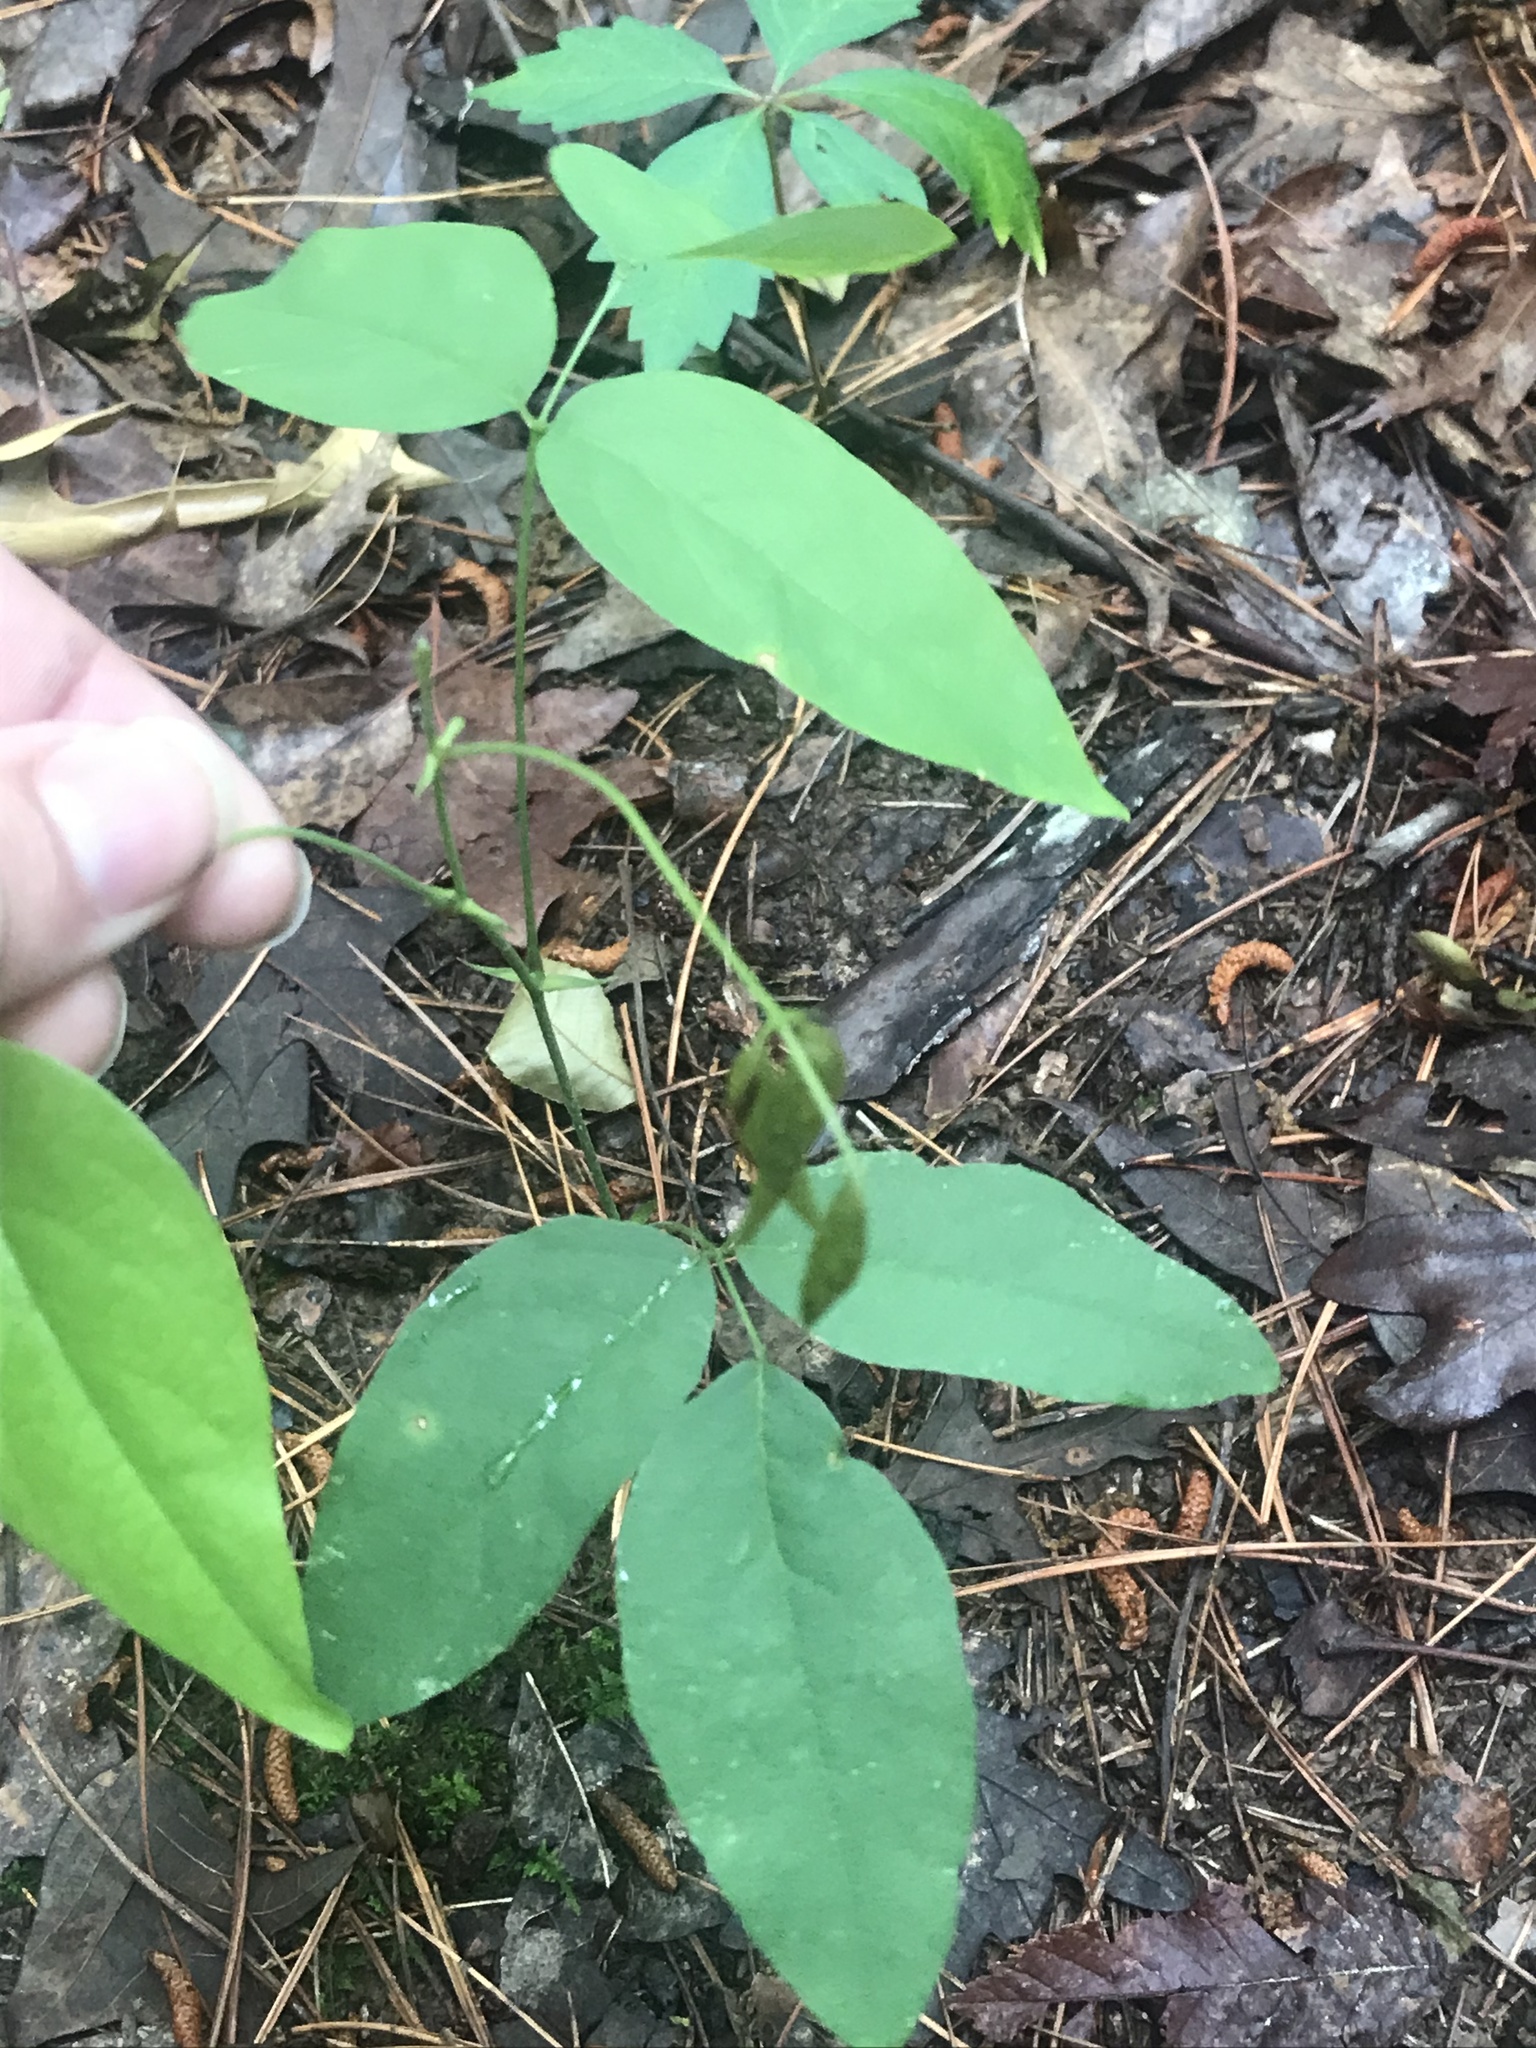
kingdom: Plantae
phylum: Tracheophyta
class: Magnoliopsida
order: Fabales
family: Fabaceae
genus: Clitoria
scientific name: Clitoria mariana
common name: Butterfly-pea
